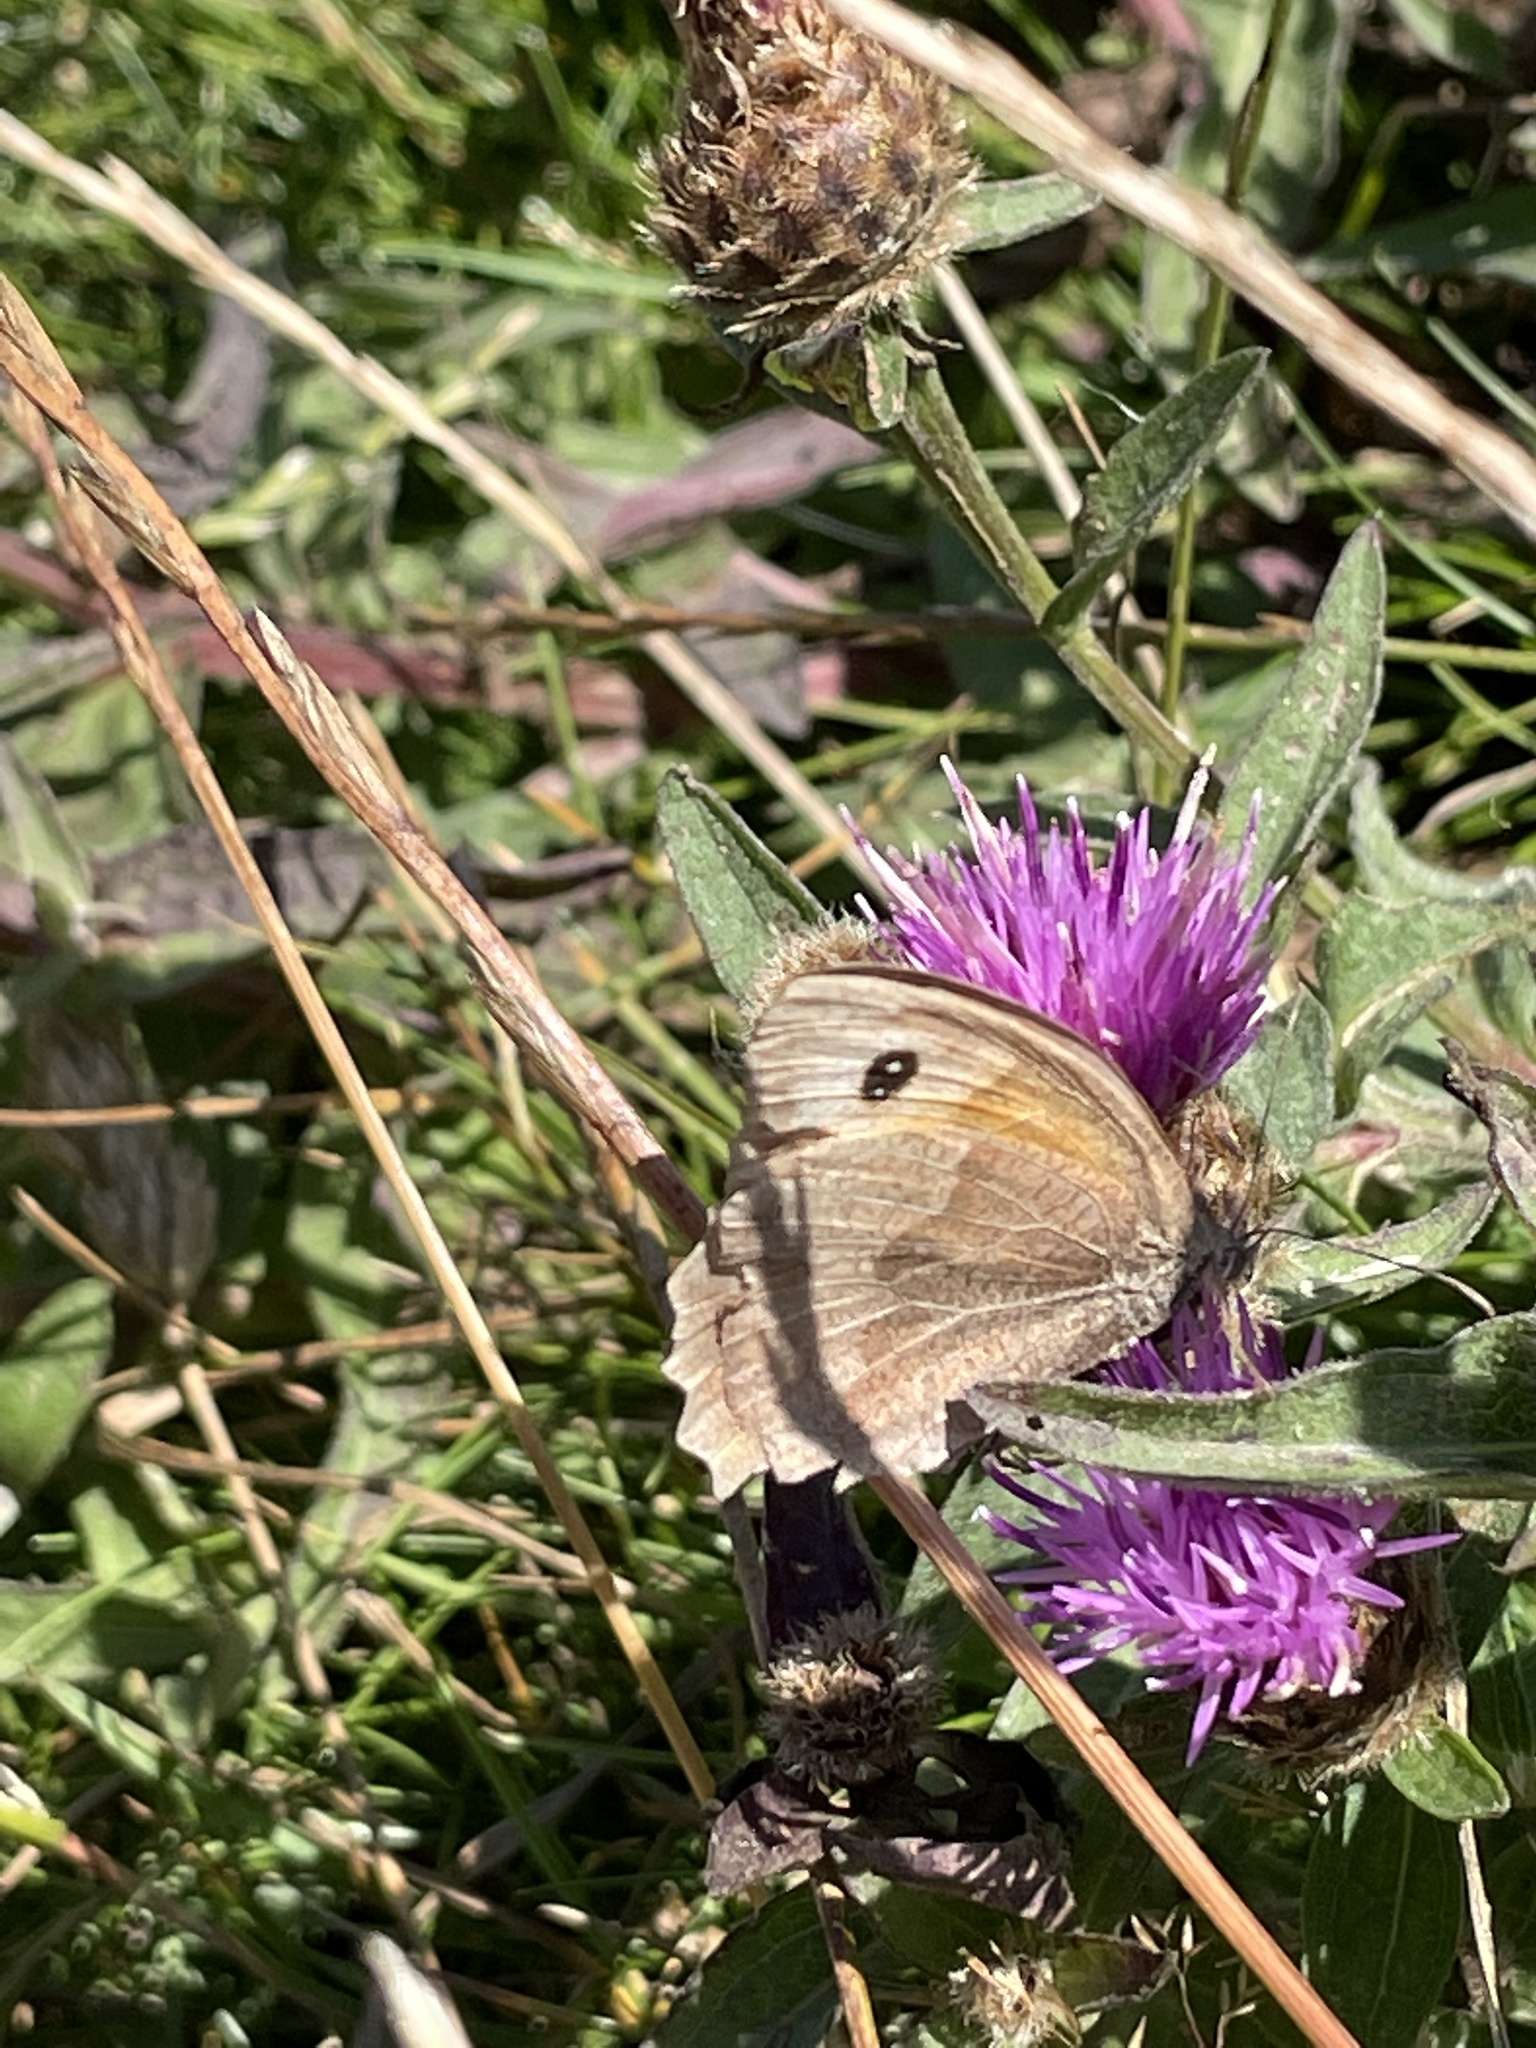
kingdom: Animalia
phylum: Arthropoda
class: Insecta
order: Lepidoptera
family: Nymphalidae
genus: Maniola
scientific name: Maniola jurtina
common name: Meadow brown
